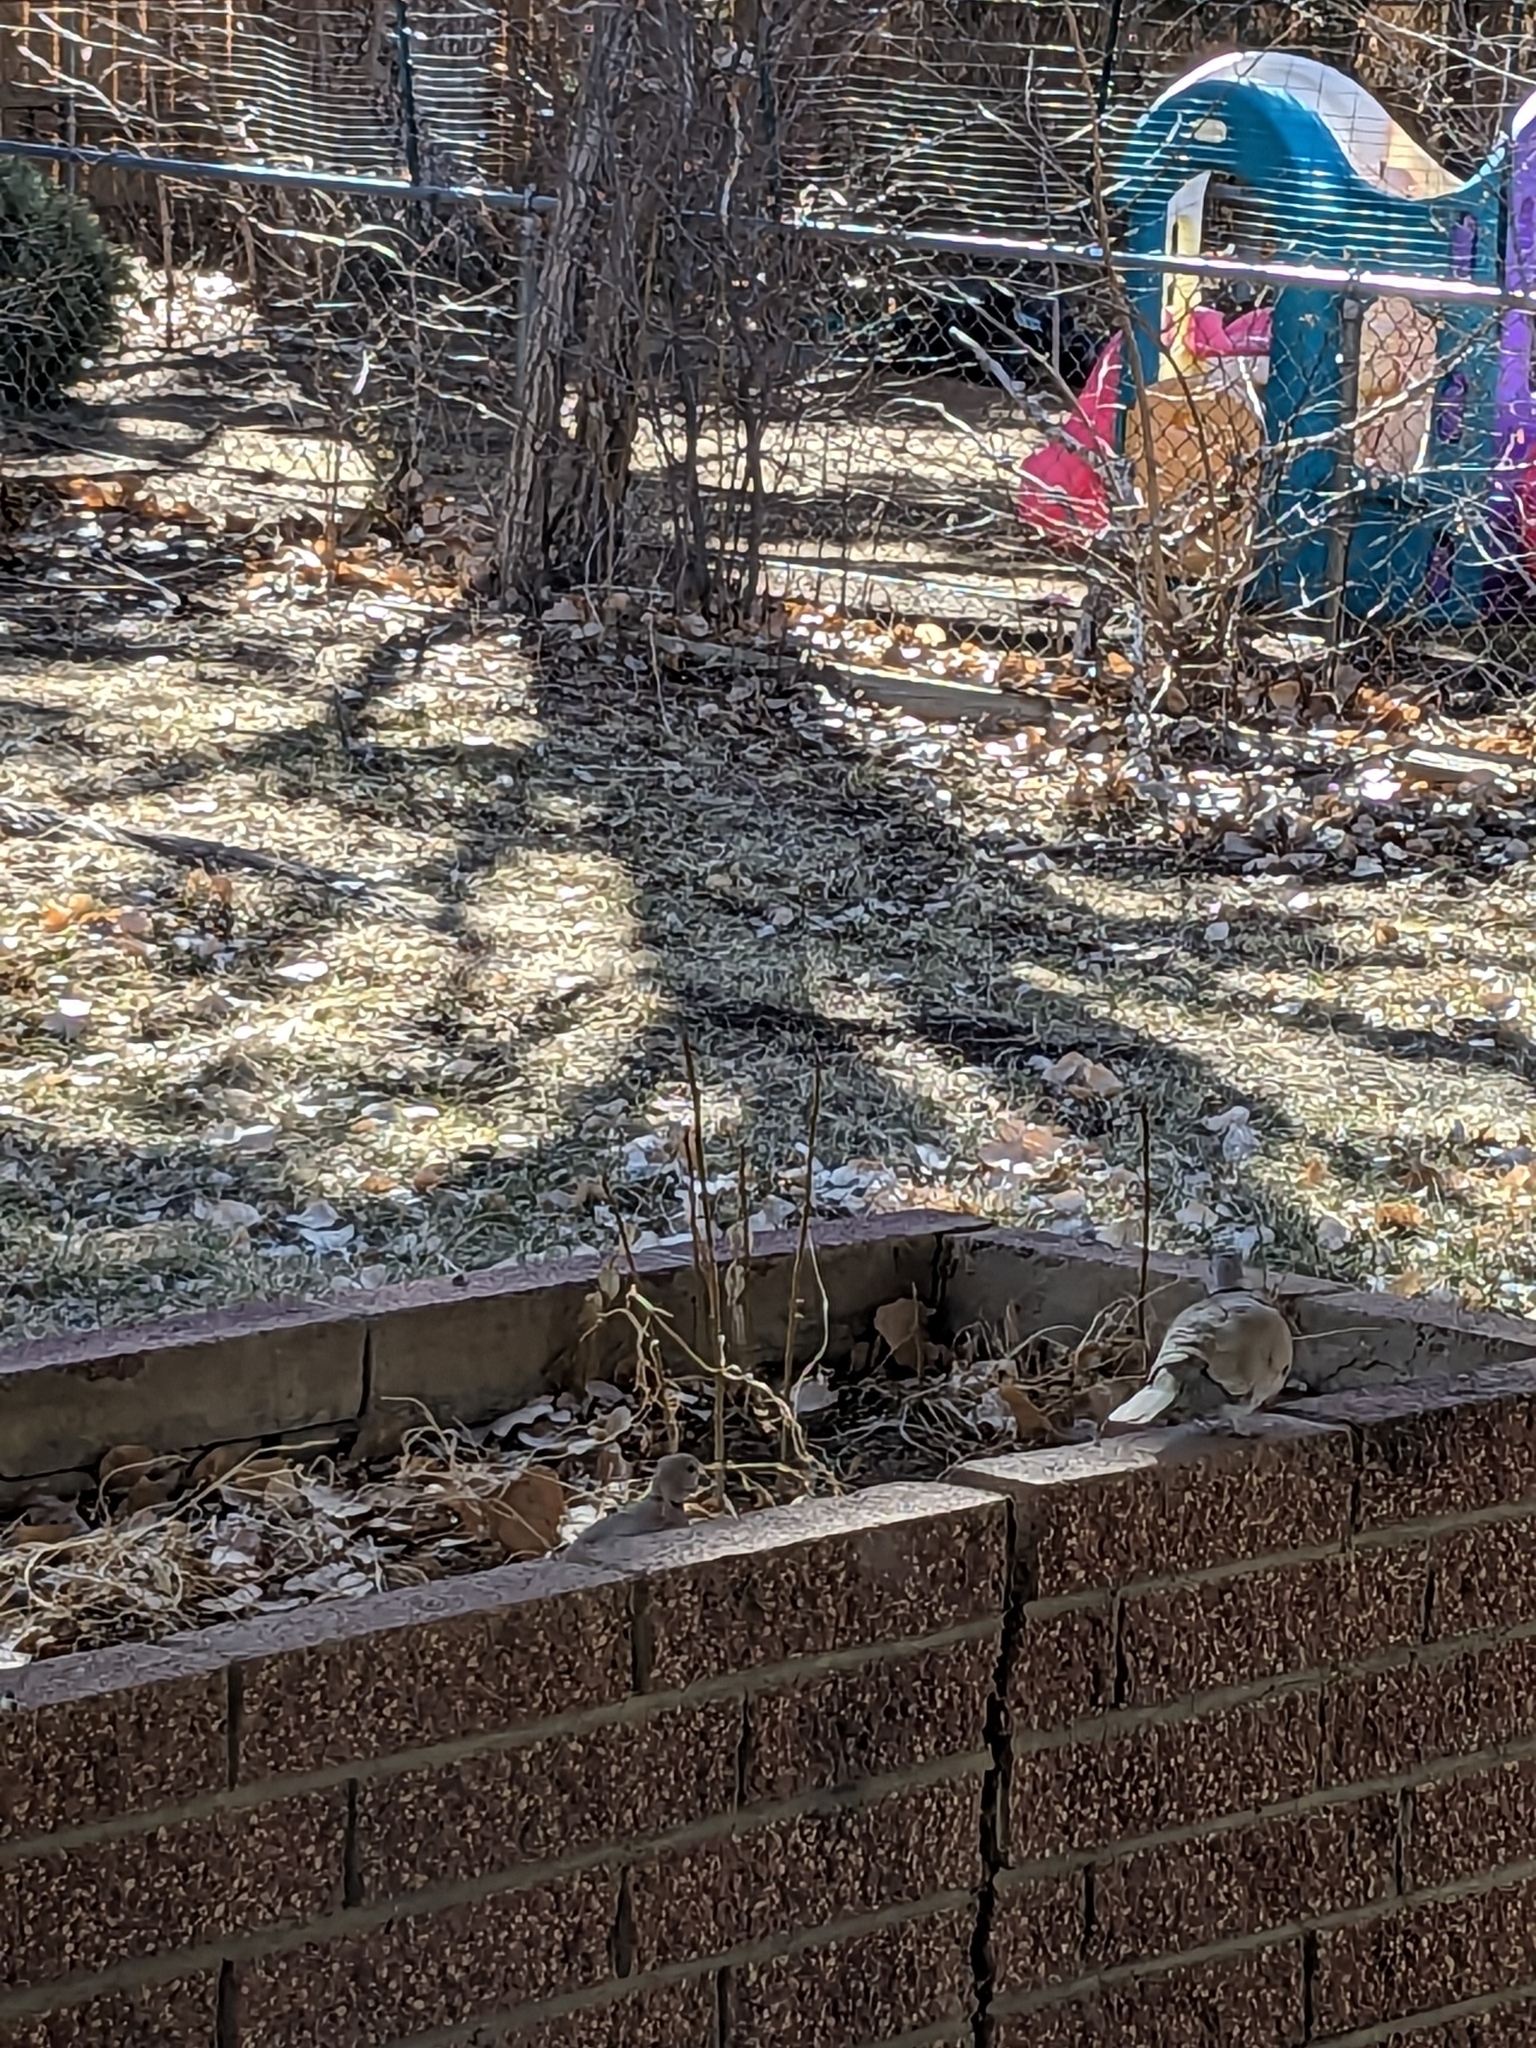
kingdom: Animalia
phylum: Chordata
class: Aves
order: Columbiformes
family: Columbidae
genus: Streptopelia
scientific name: Streptopelia decaocto
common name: Eurasian collared dove
